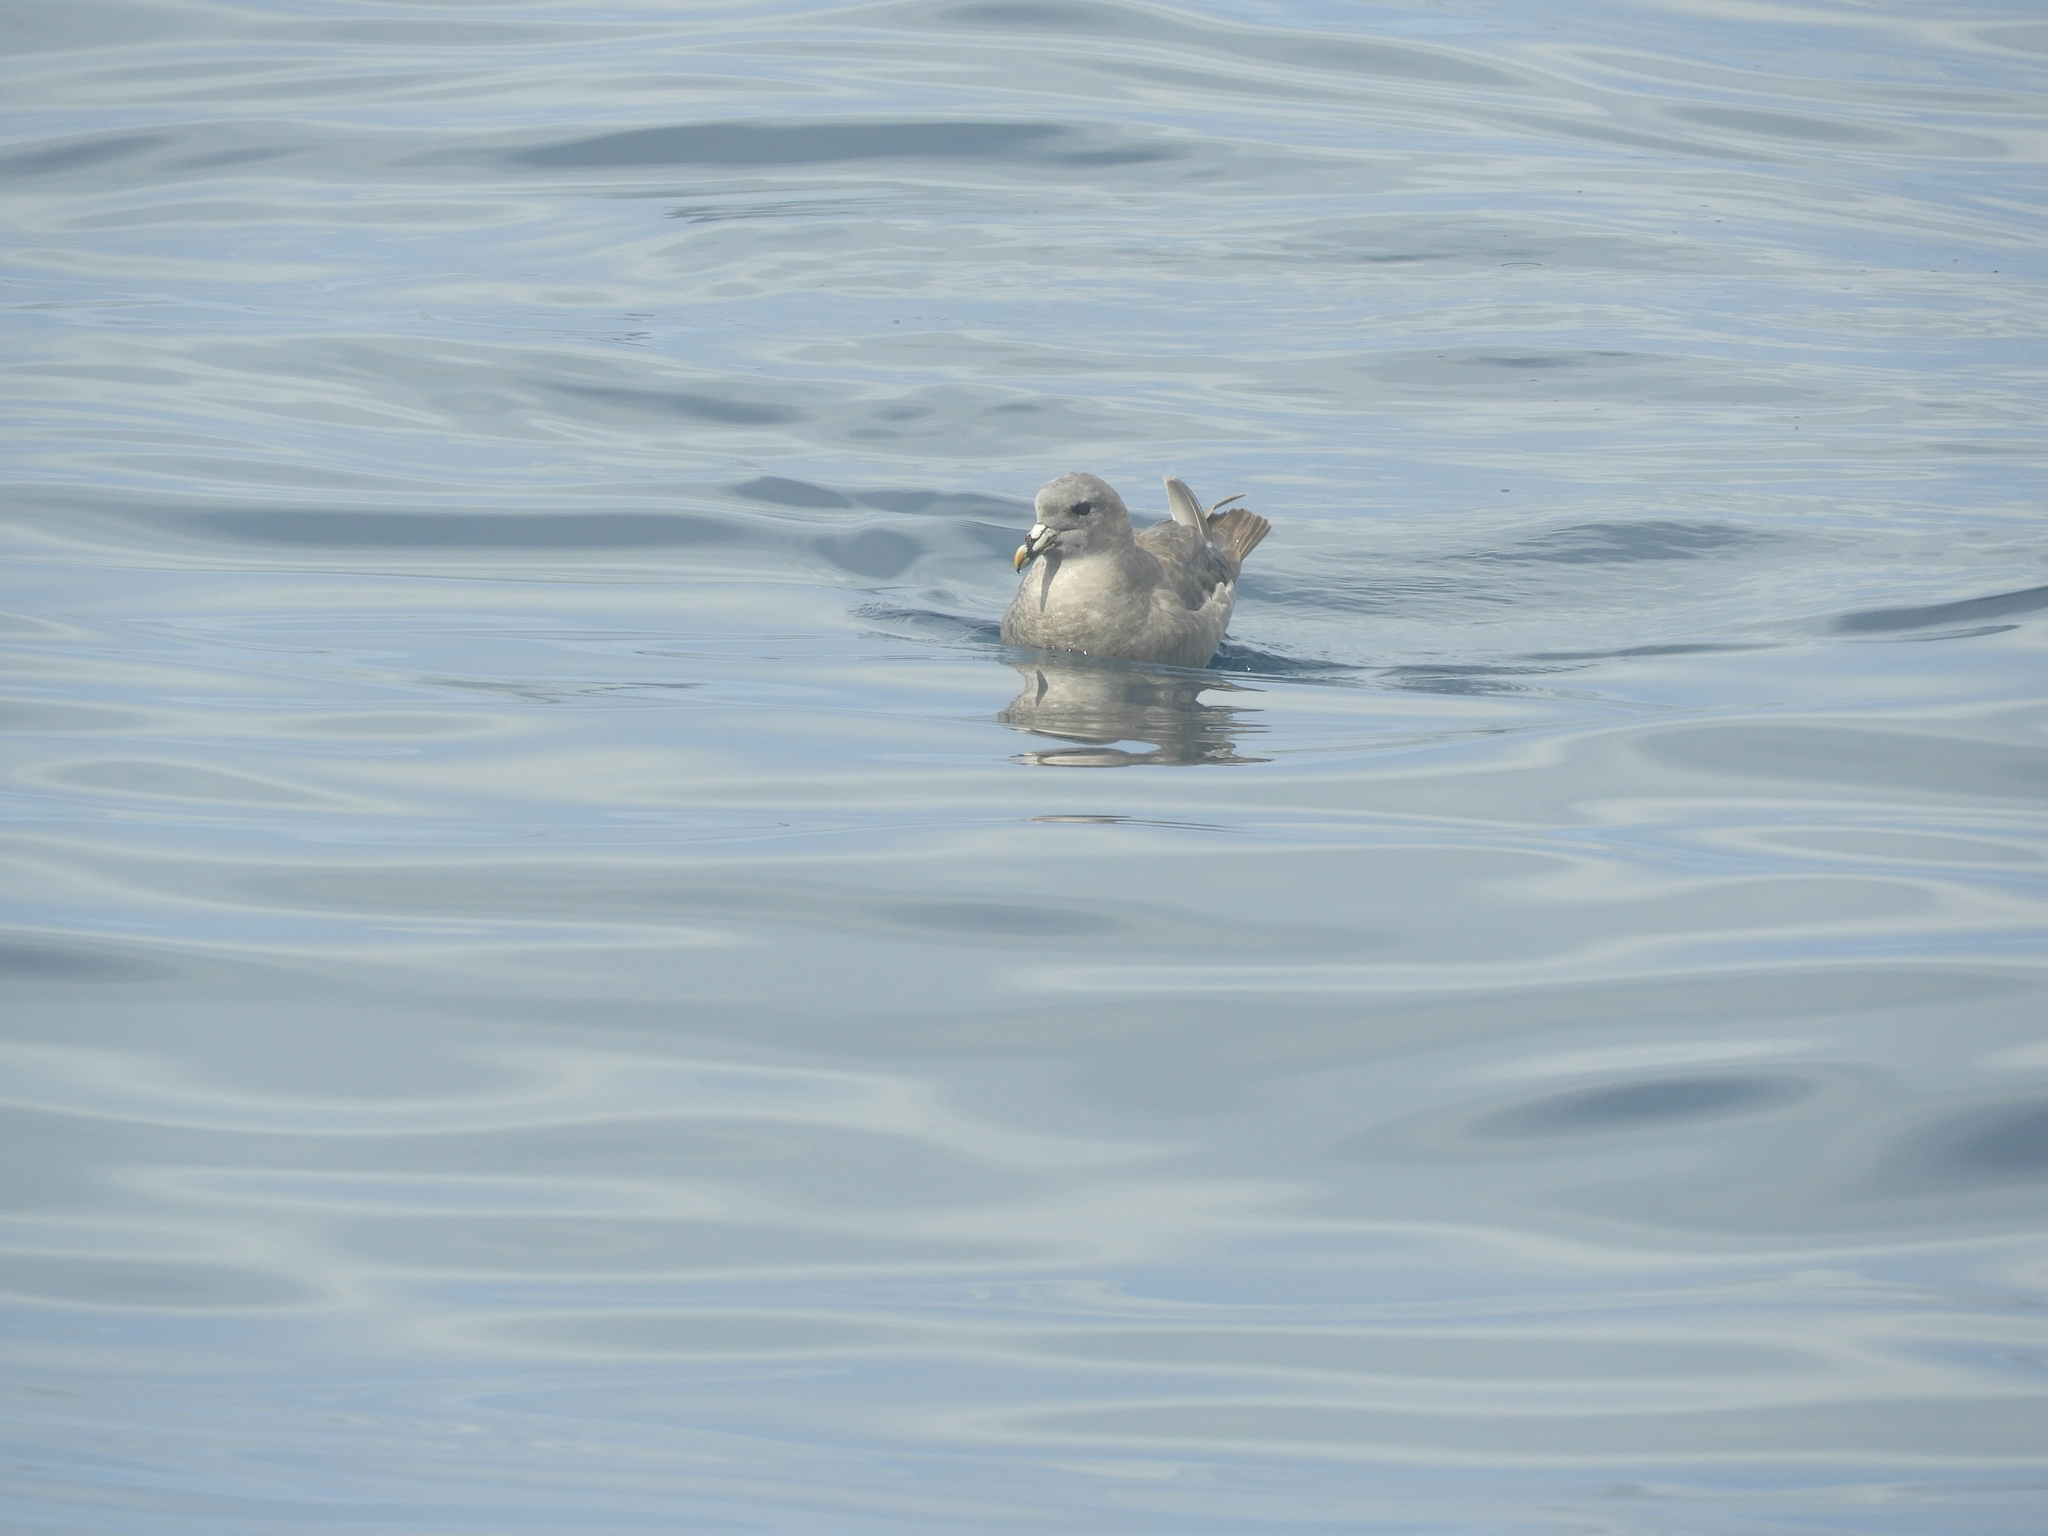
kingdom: Animalia
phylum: Chordata
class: Aves
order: Procellariiformes
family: Procellariidae
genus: Fulmarus
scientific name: Fulmarus glacialis
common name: Northern fulmar
